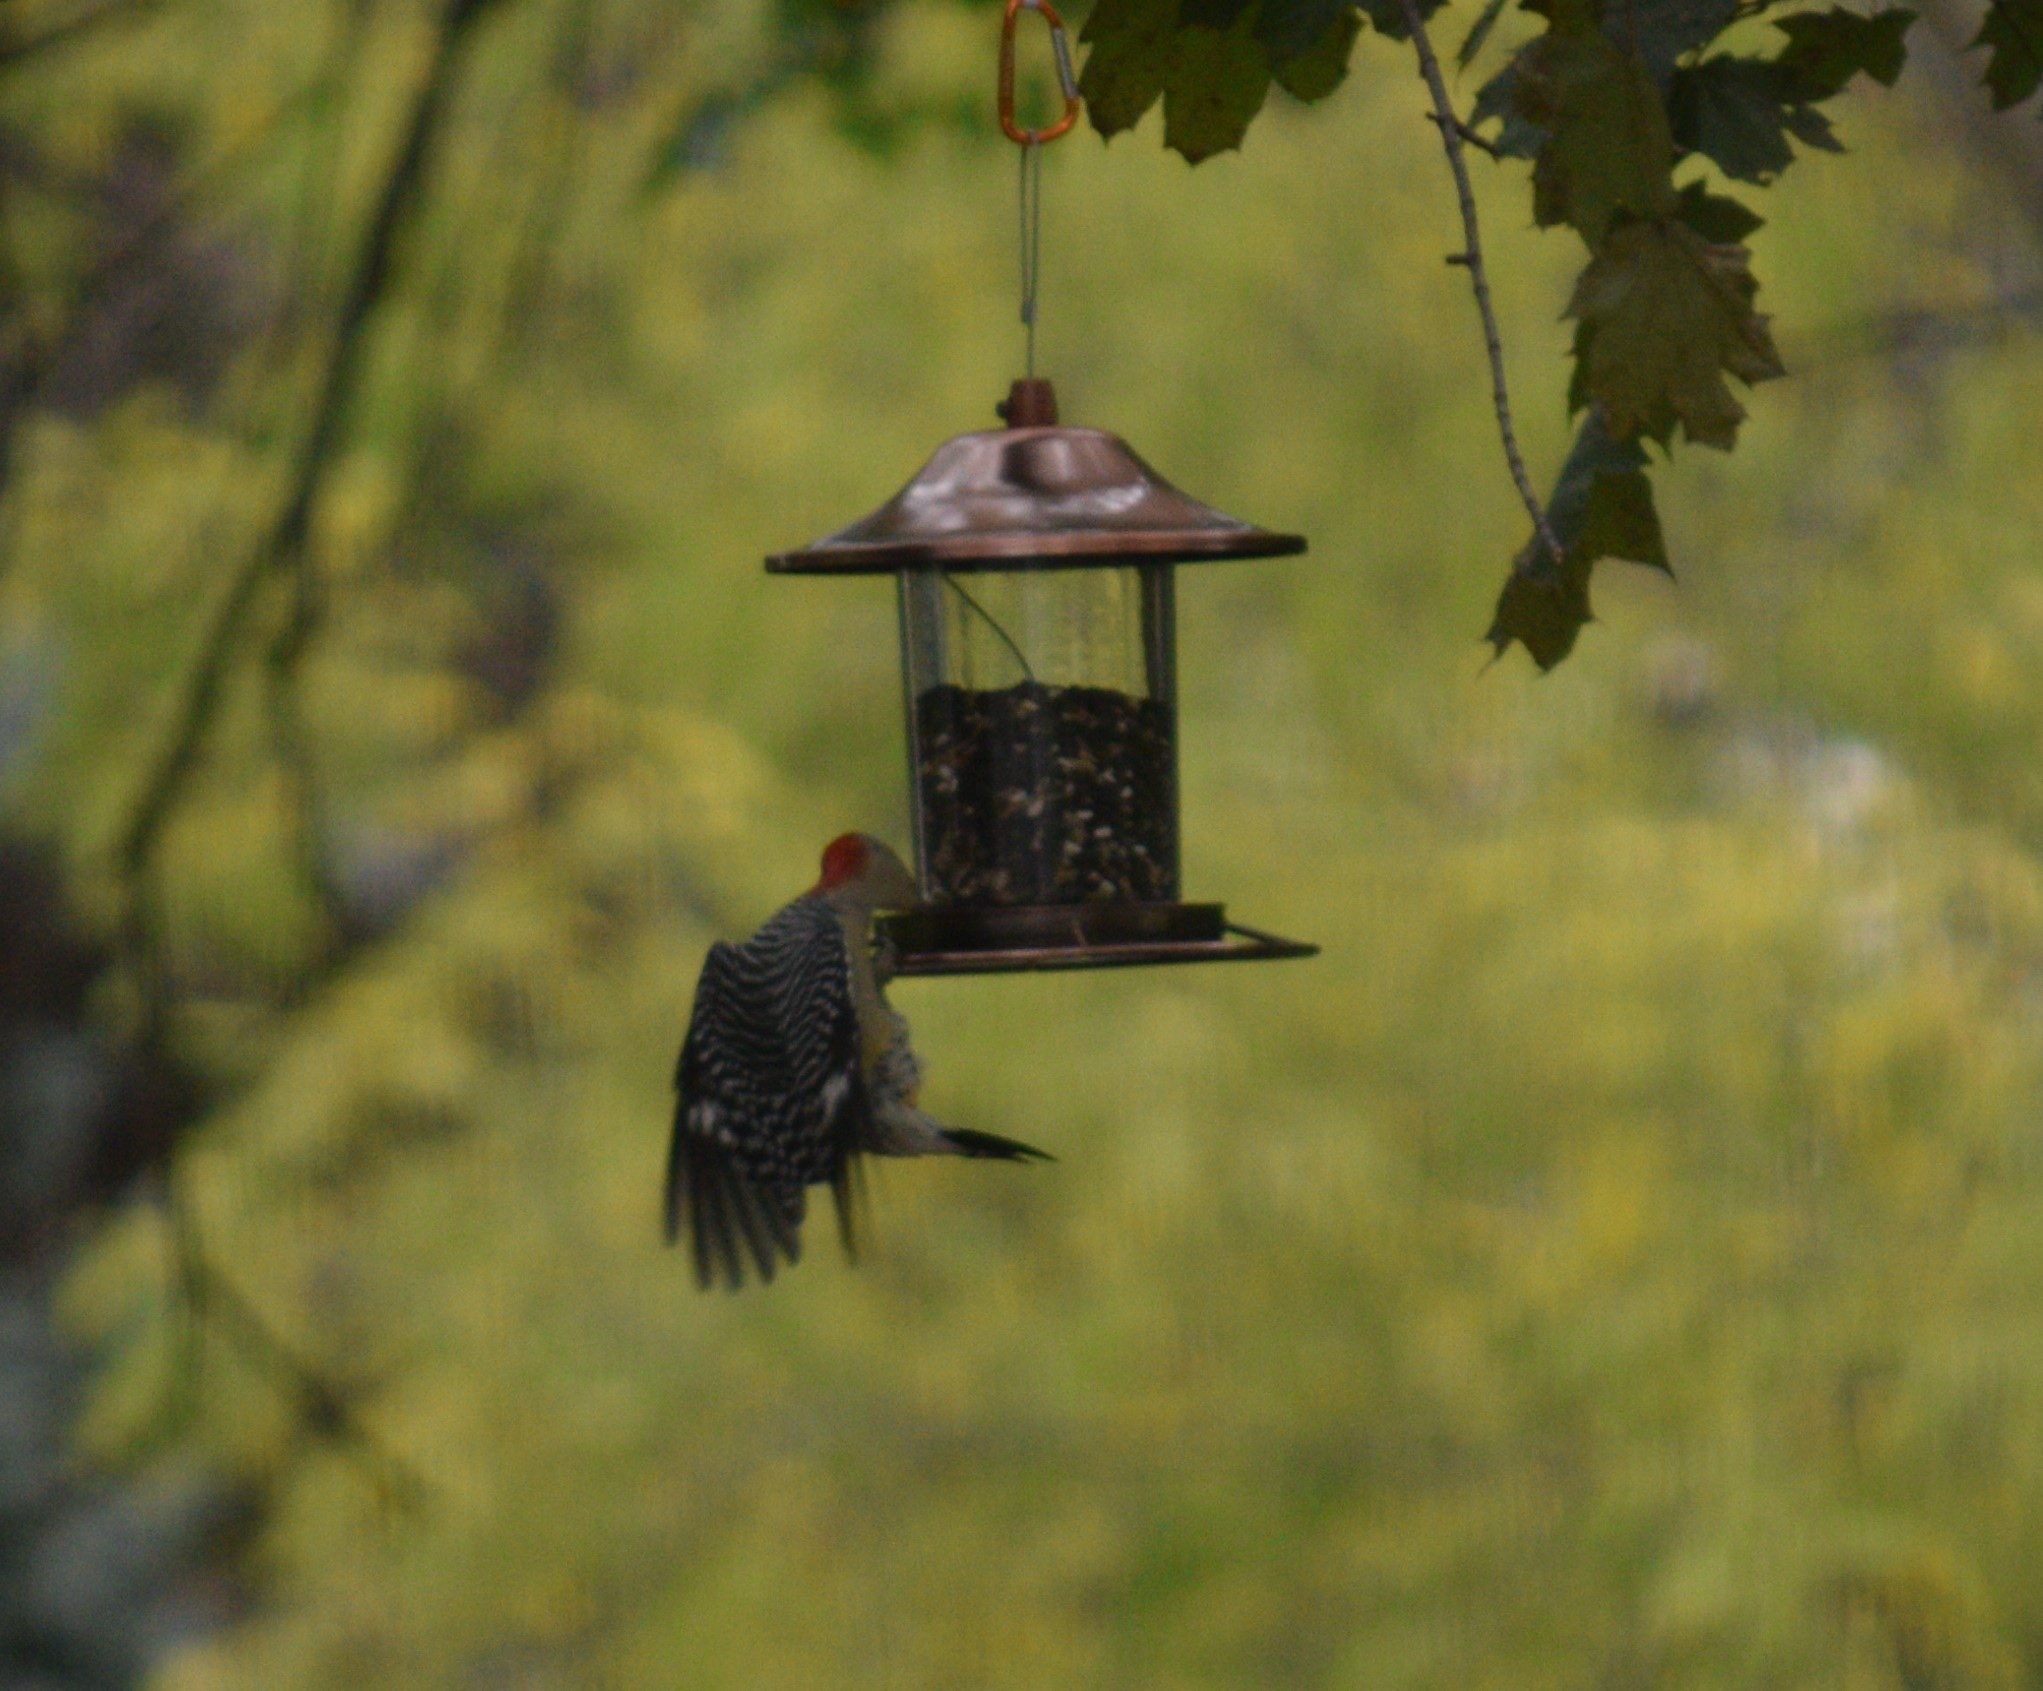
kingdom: Animalia
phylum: Chordata
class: Aves
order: Piciformes
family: Picidae
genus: Melanerpes
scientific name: Melanerpes carolinus
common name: Red-bellied woodpecker
